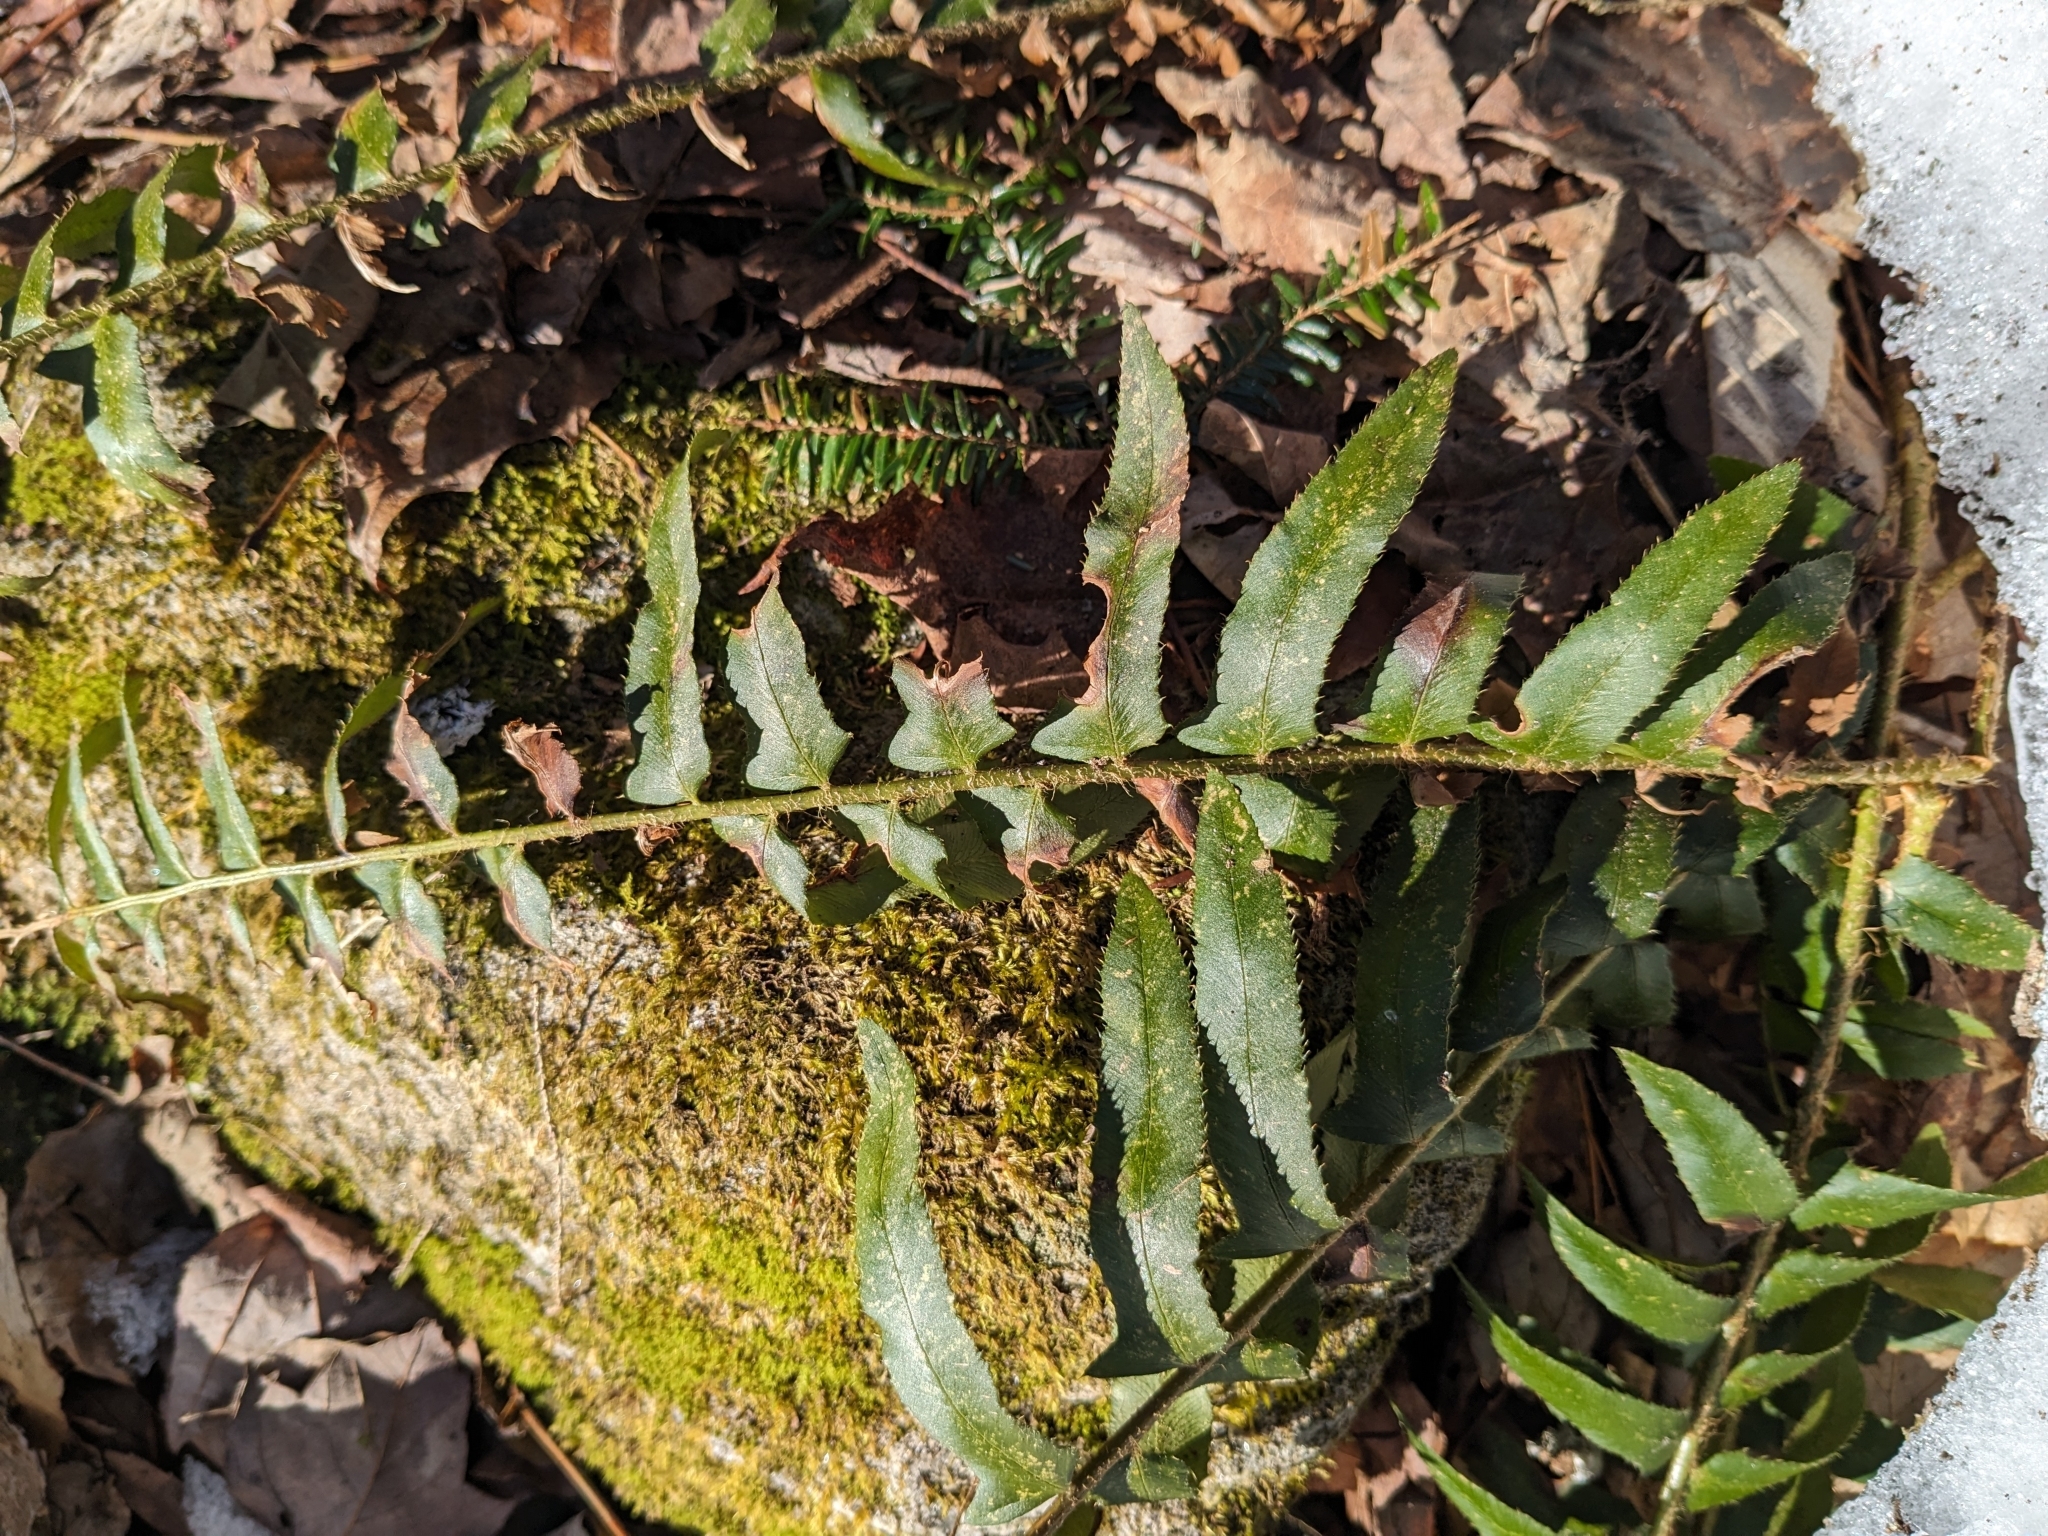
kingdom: Plantae
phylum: Tracheophyta
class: Polypodiopsida
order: Polypodiales
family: Dryopteridaceae
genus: Polystichum
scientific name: Polystichum acrostichoides
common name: Christmas fern
